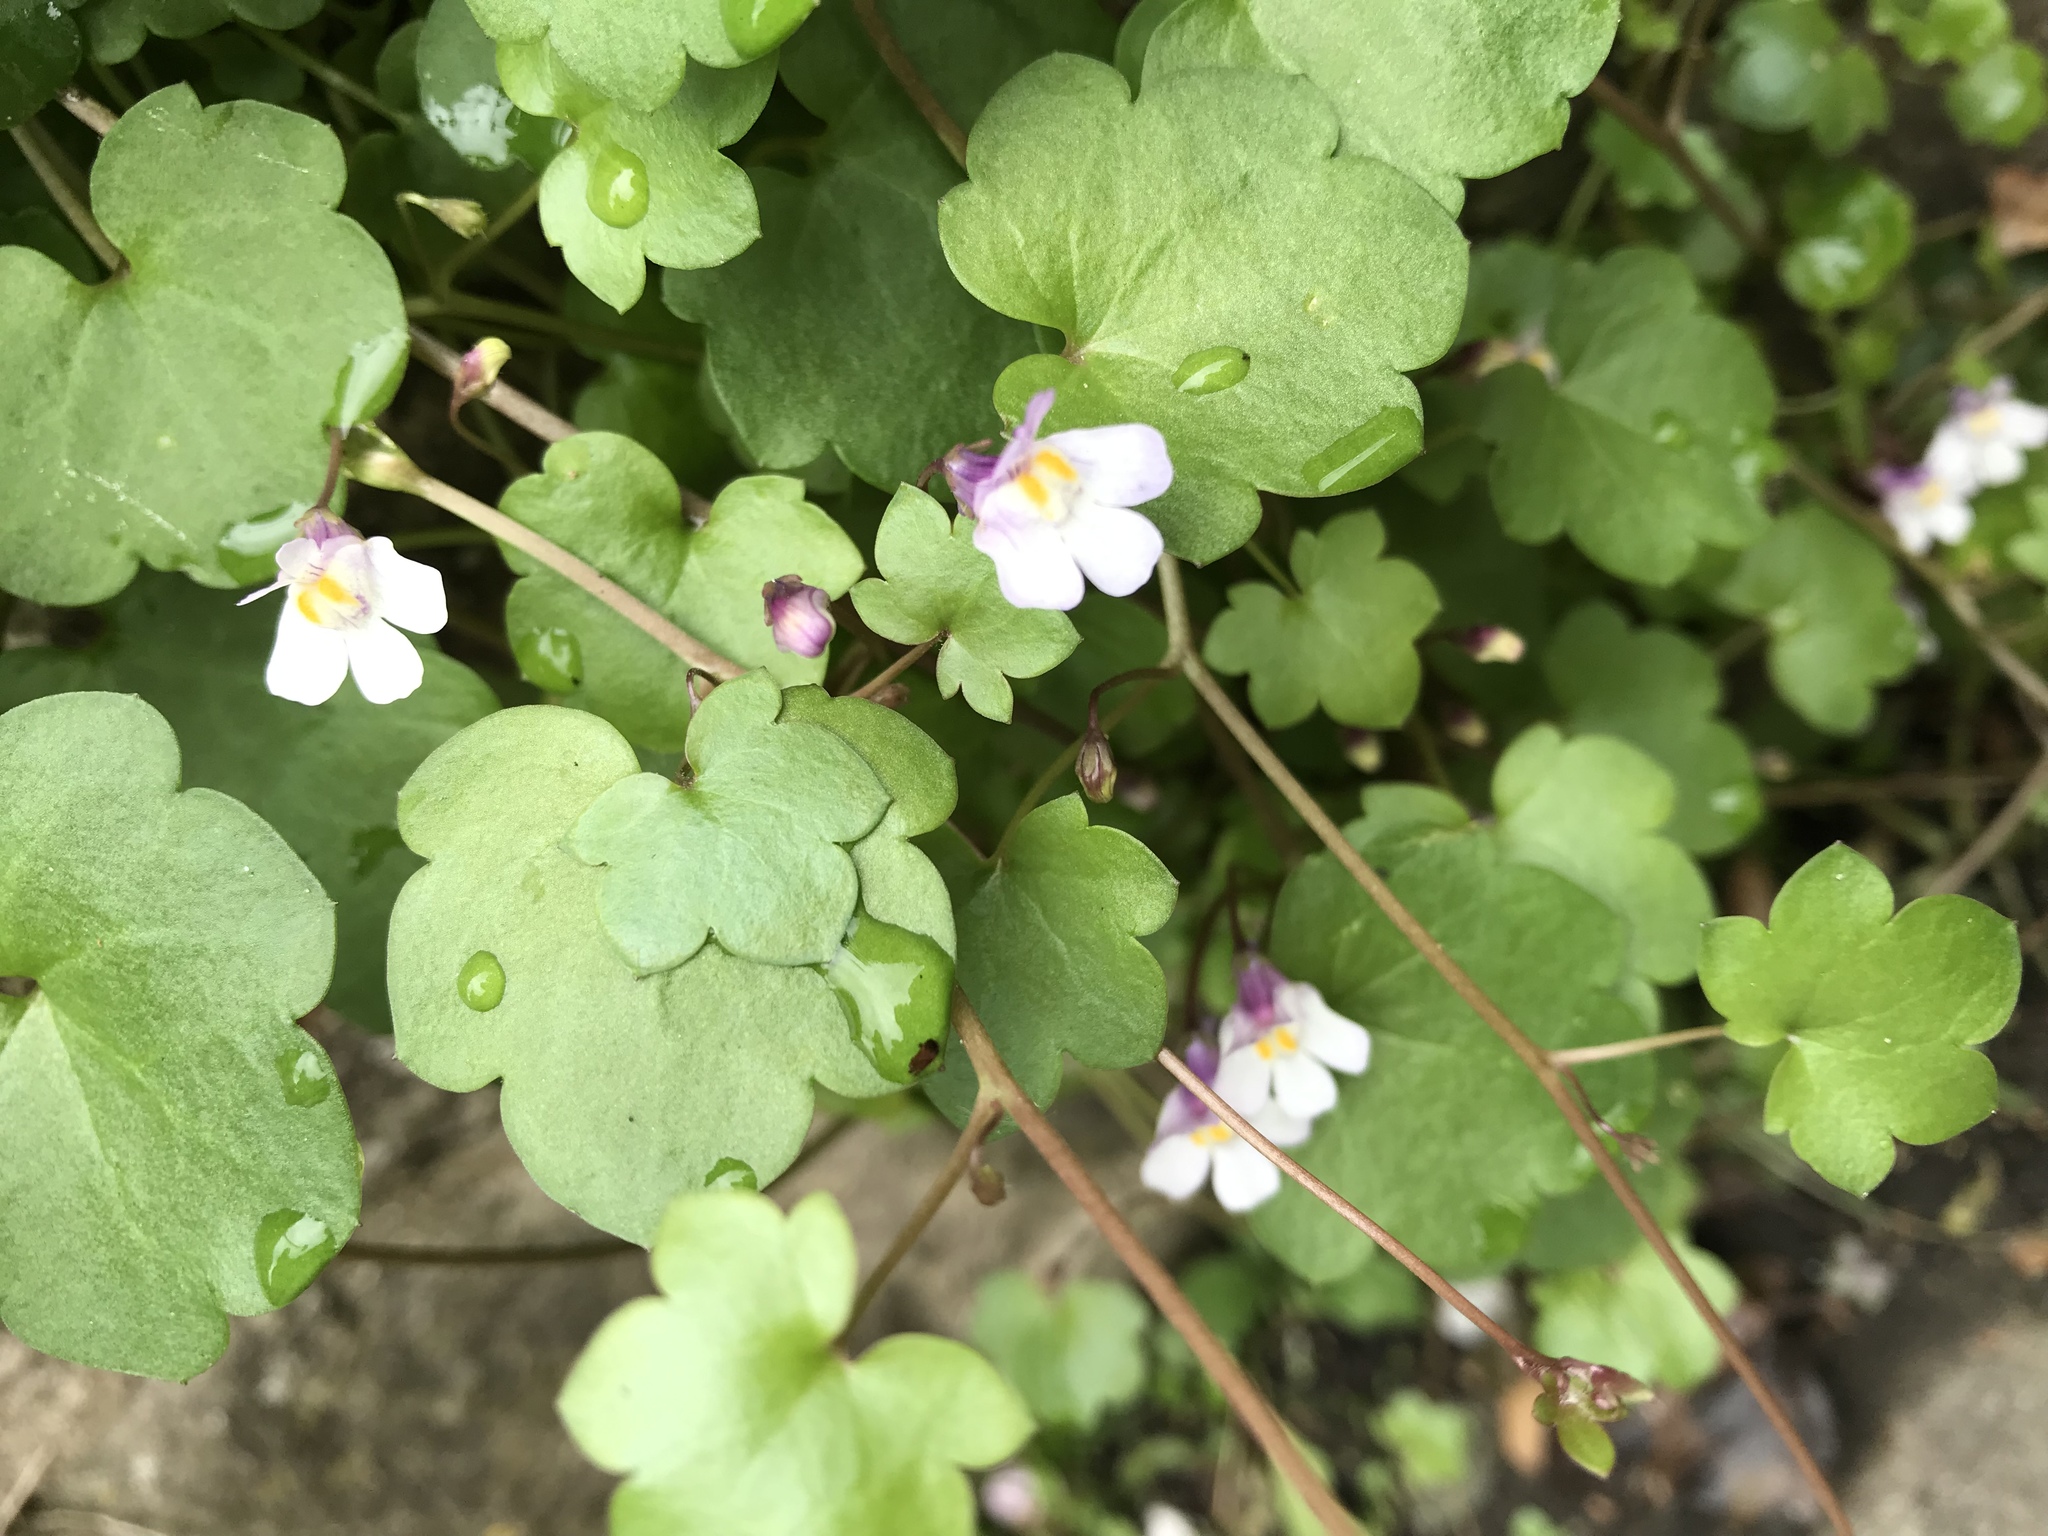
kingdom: Plantae
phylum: Tracheophyta
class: Magnoliopsida
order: Lamiales
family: Plantaginaceae
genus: Cymbalaria
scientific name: Cymbalaria muralis
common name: Ivy-leaved toadflax
